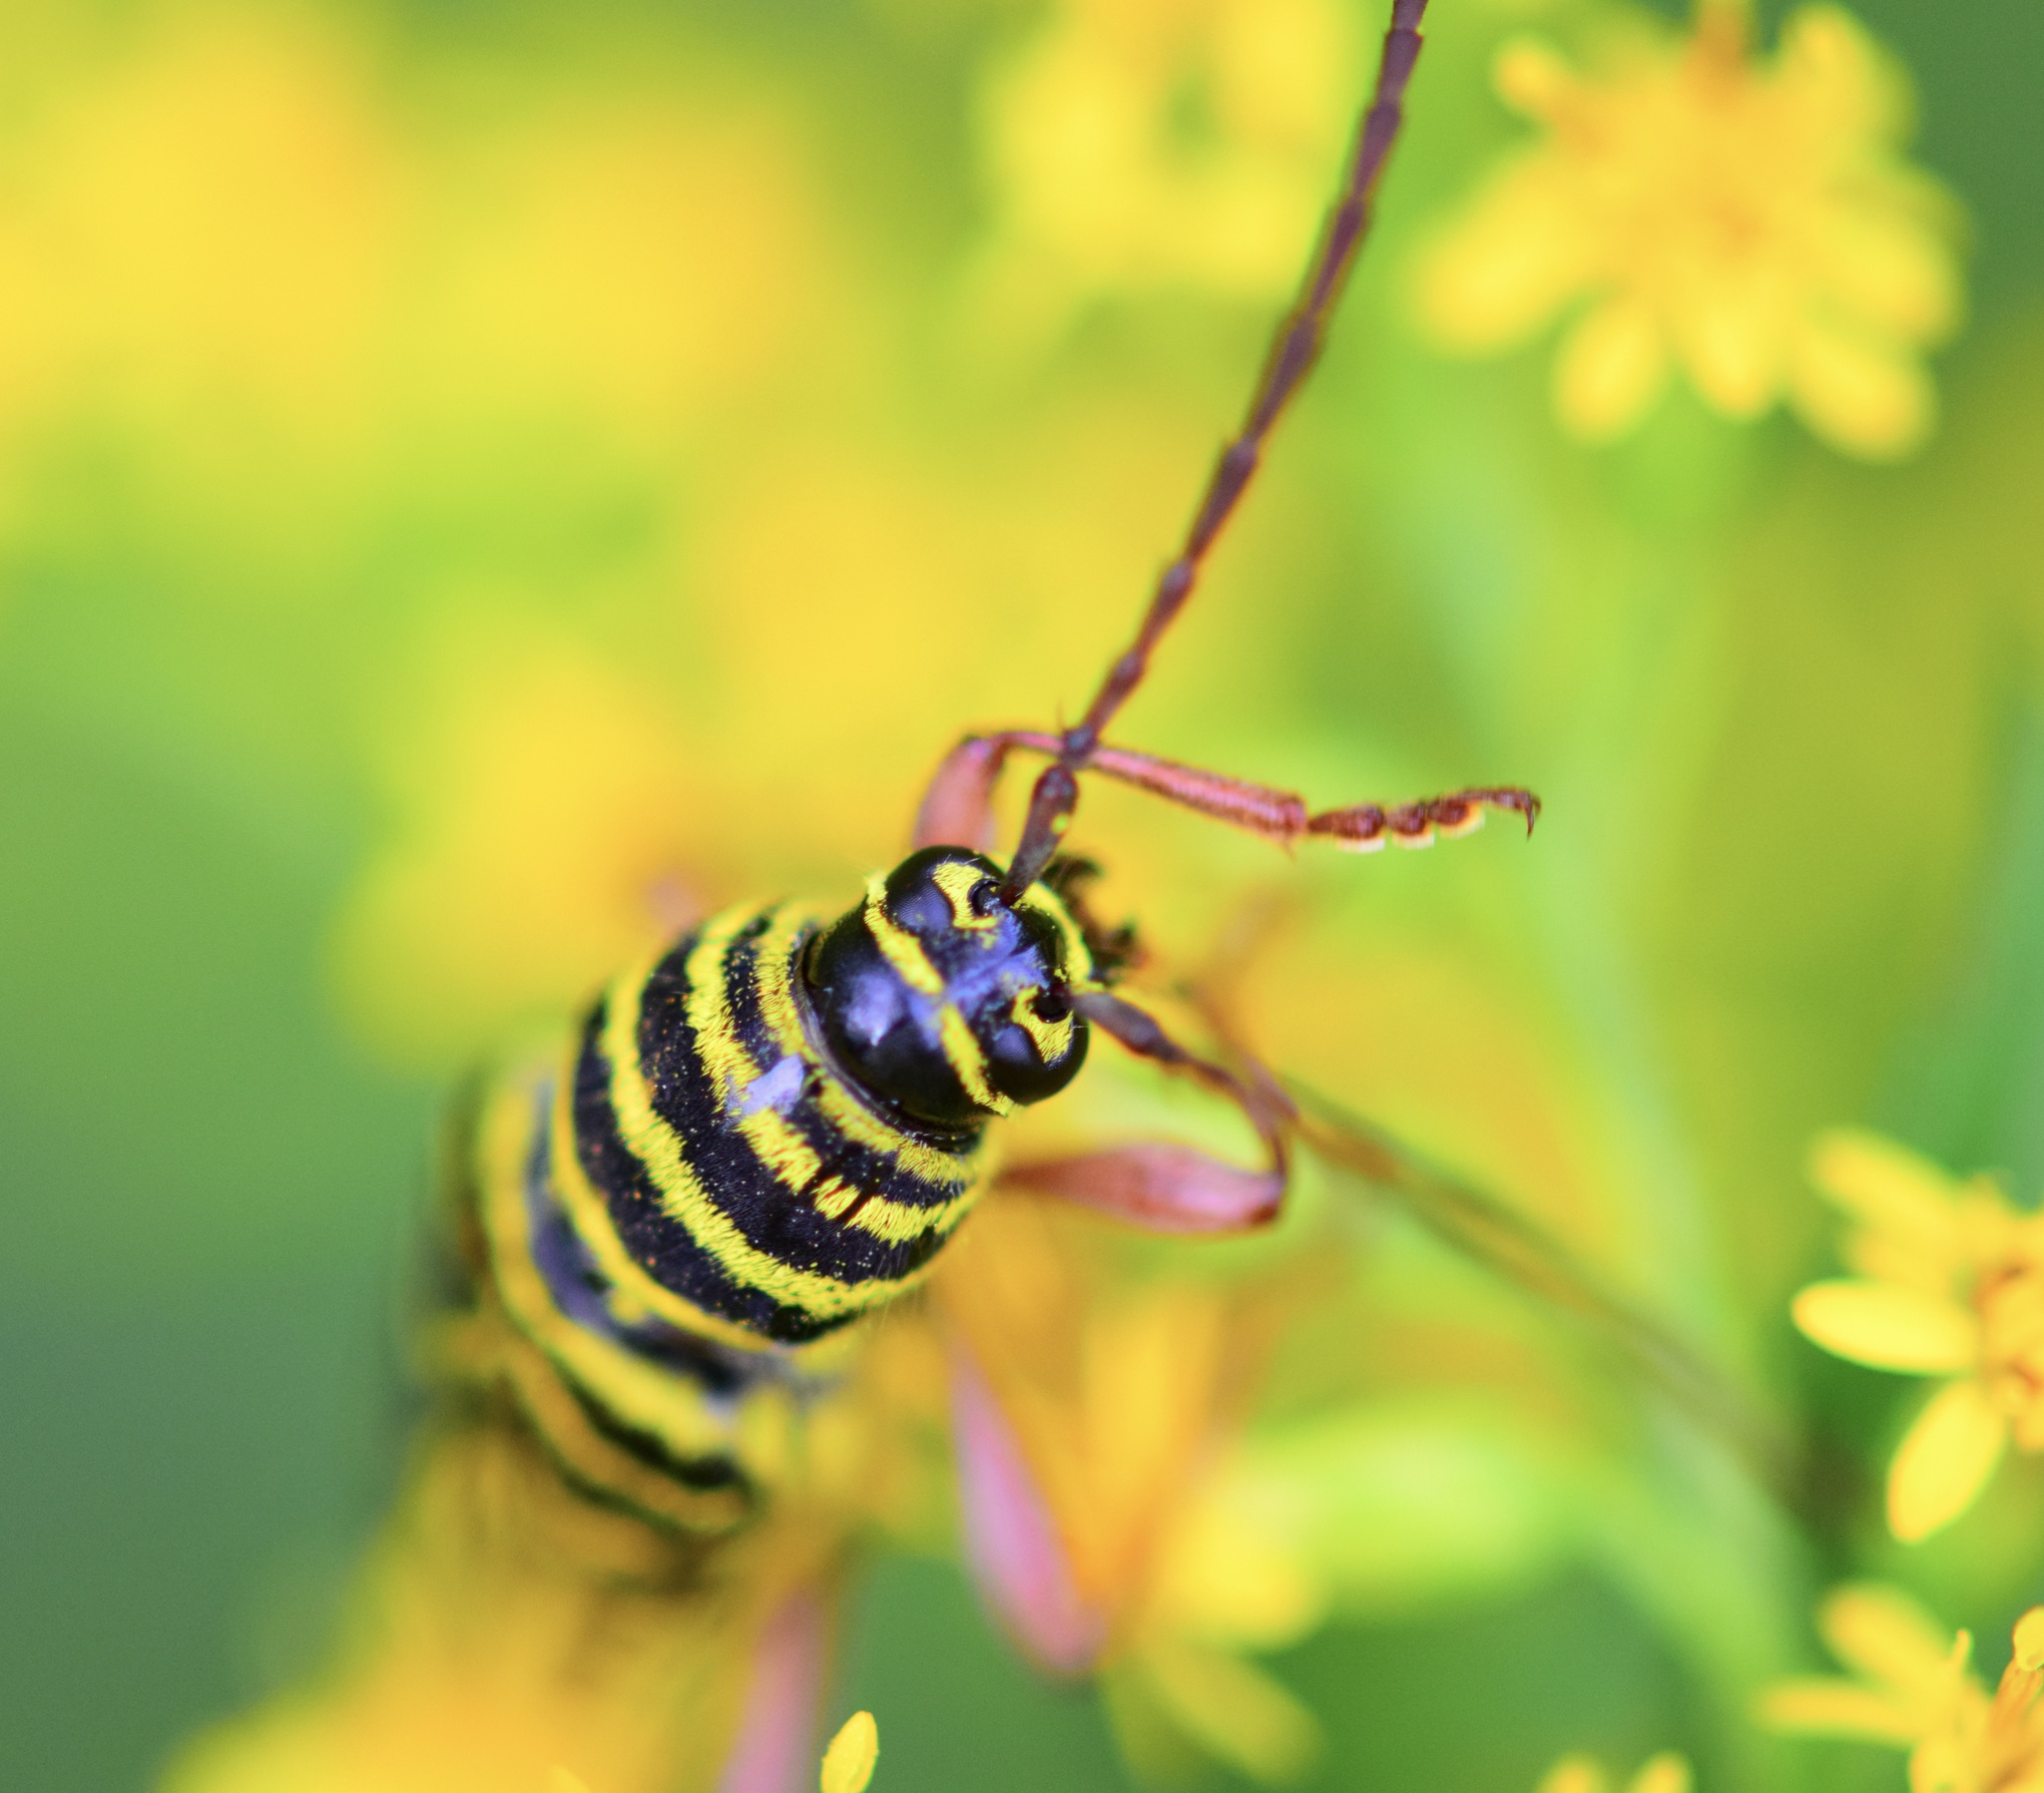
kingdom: Animalia
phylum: Arthropoda
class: Insecta
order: Coleoptera
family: Cerambycidae
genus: Megacyllene
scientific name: Megacyllene robiniae
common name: Locust borer
